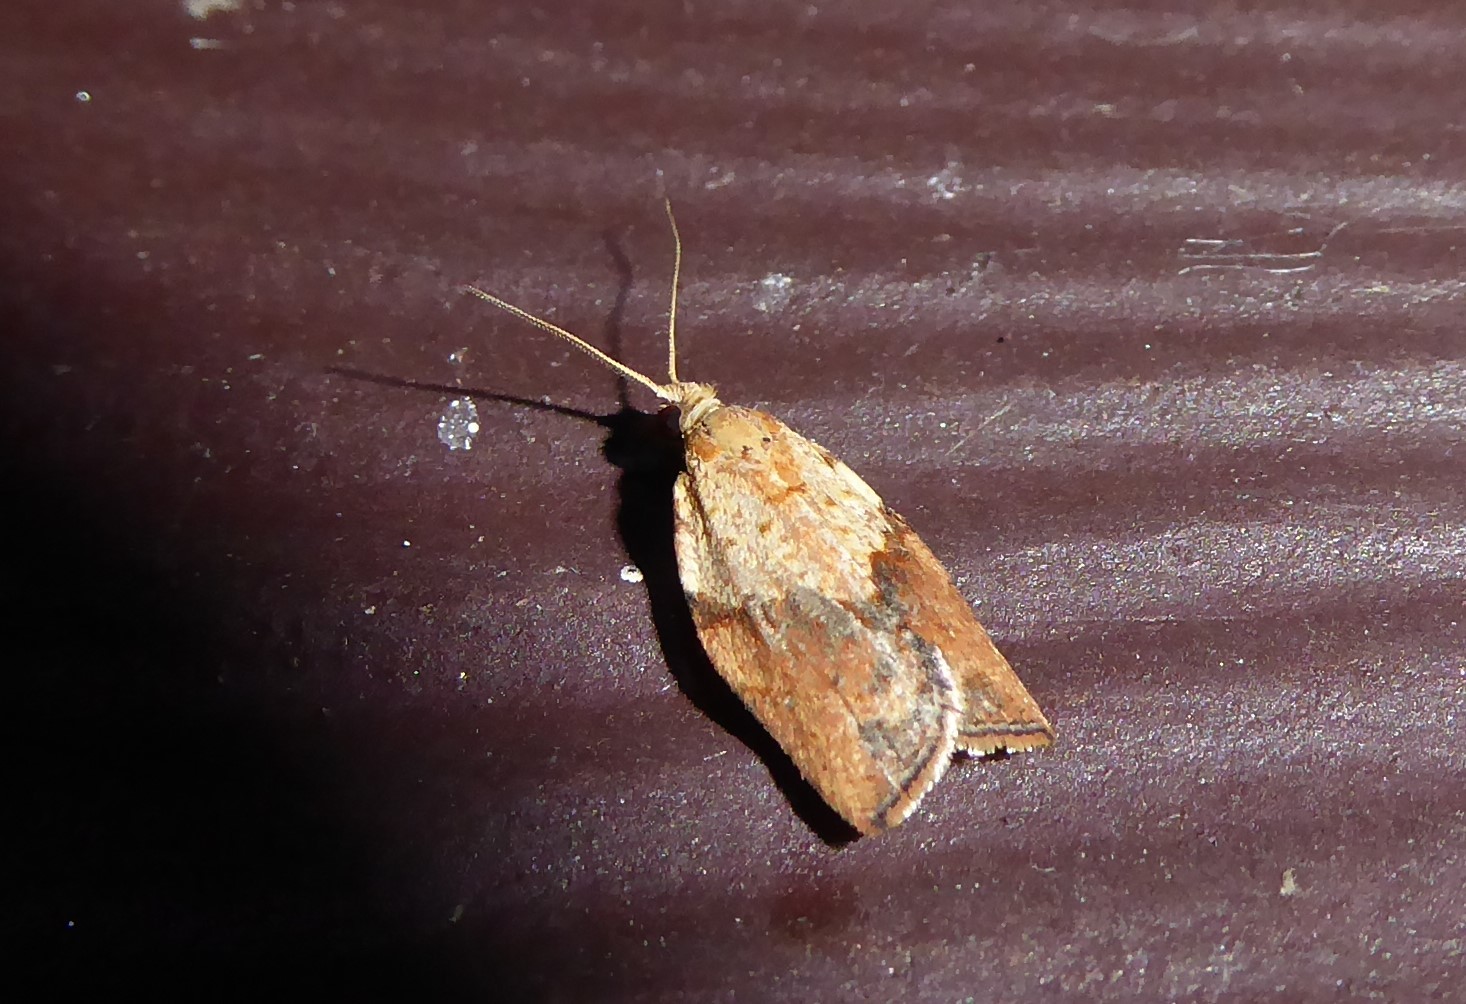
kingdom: Animalia
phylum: Arthropoda
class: Insecta
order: Lepidoptera
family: Tortricidae
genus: Epiphyas
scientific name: Epiphyas postvittana
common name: Light brown apple moth
